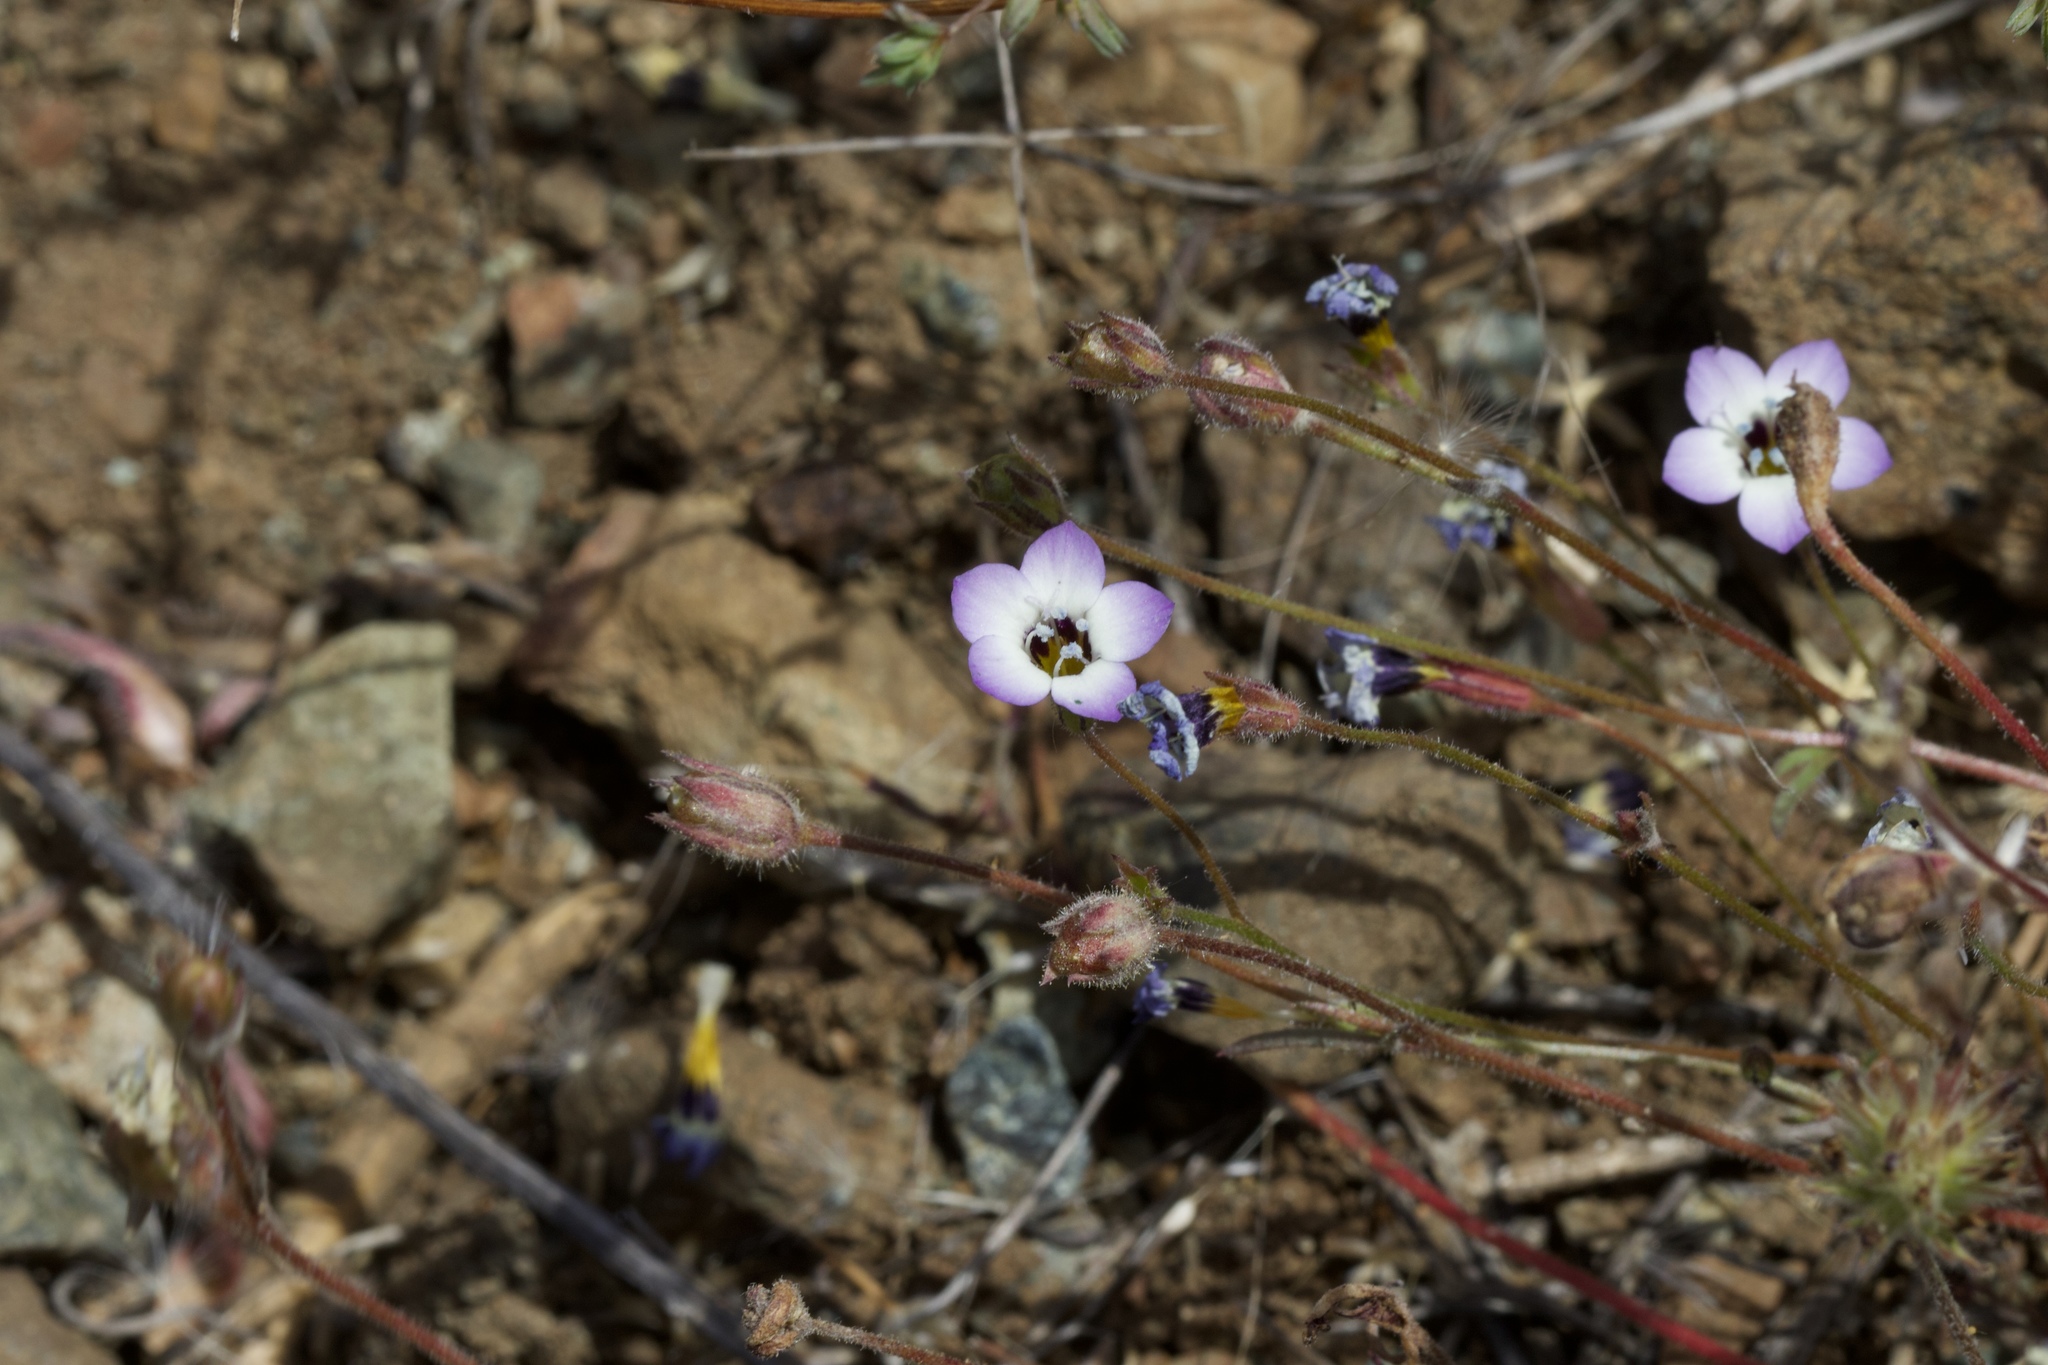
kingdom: Plantae
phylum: Tracheophyta
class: Magnoliopsida
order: Ericales
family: Polemoniaceae
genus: Gilia
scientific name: Gilia tricolor
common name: Bird's-eyes
